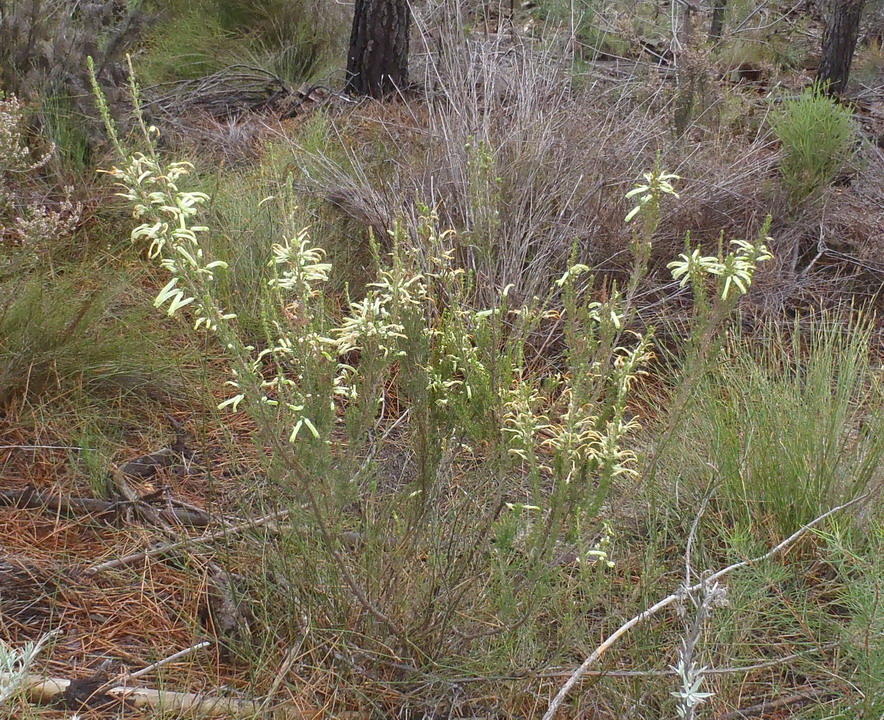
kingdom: Plantae
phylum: Tracheophyta
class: Magnoliopsida
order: Ericales
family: Ericaceae
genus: Erica
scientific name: Erica discolor
